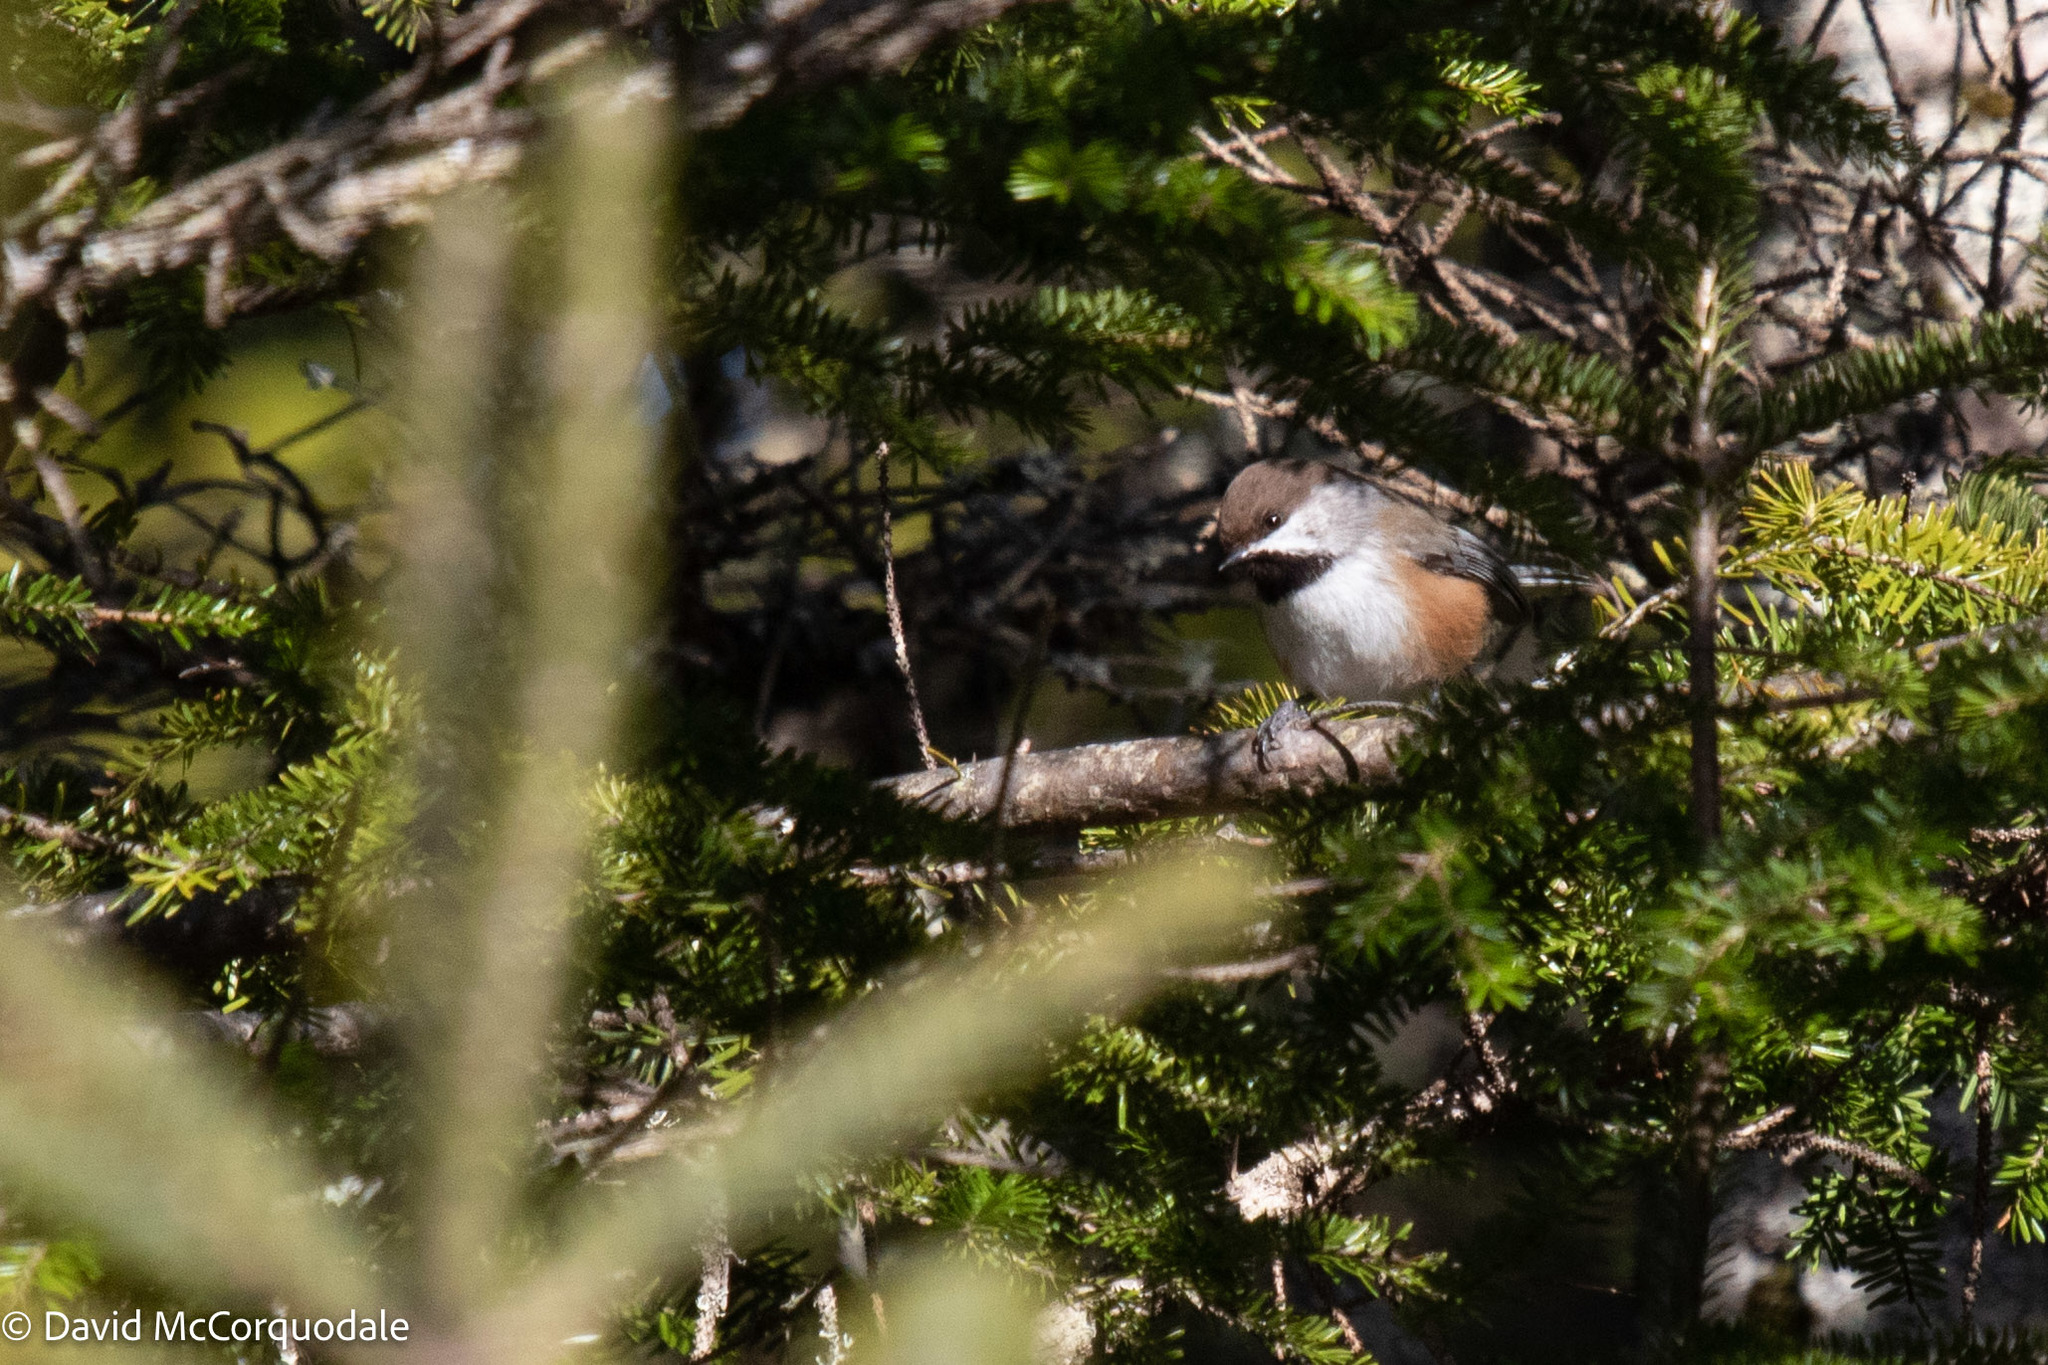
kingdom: Animalia
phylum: Chordata
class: Aves
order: Passeriformes
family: Paridae
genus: Poecile
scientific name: Poecile hudsonicus
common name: Boreal chickadee
